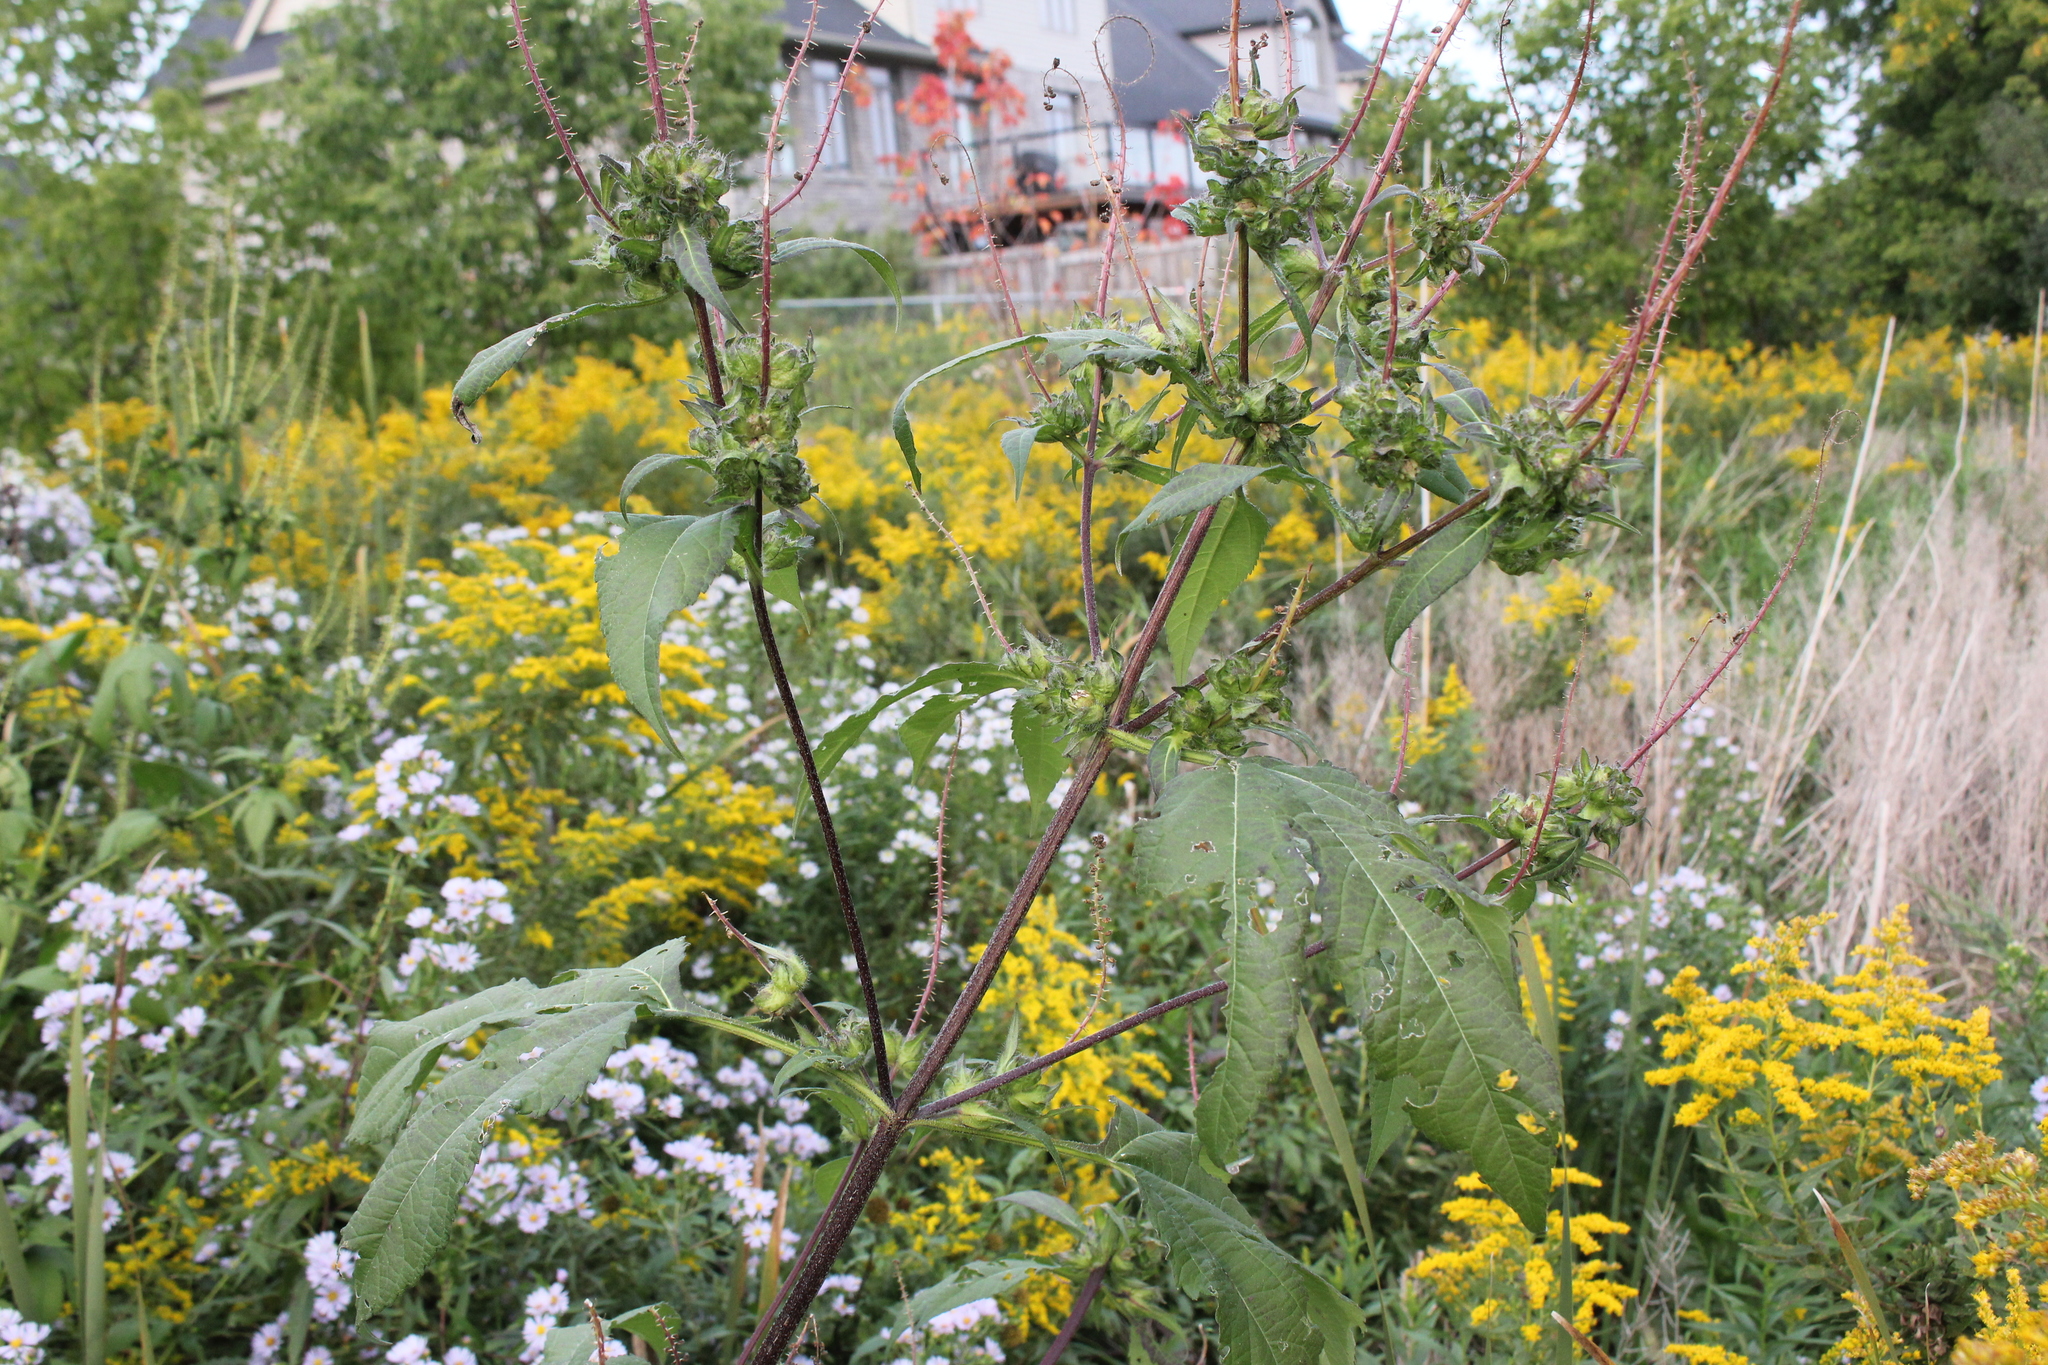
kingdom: Plantae
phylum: Tracheophyta
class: Magnoliopsida
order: Asterales
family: Asteraceae
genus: Ambrosia
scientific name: Ambrosia trifida
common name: Giant ragweed
